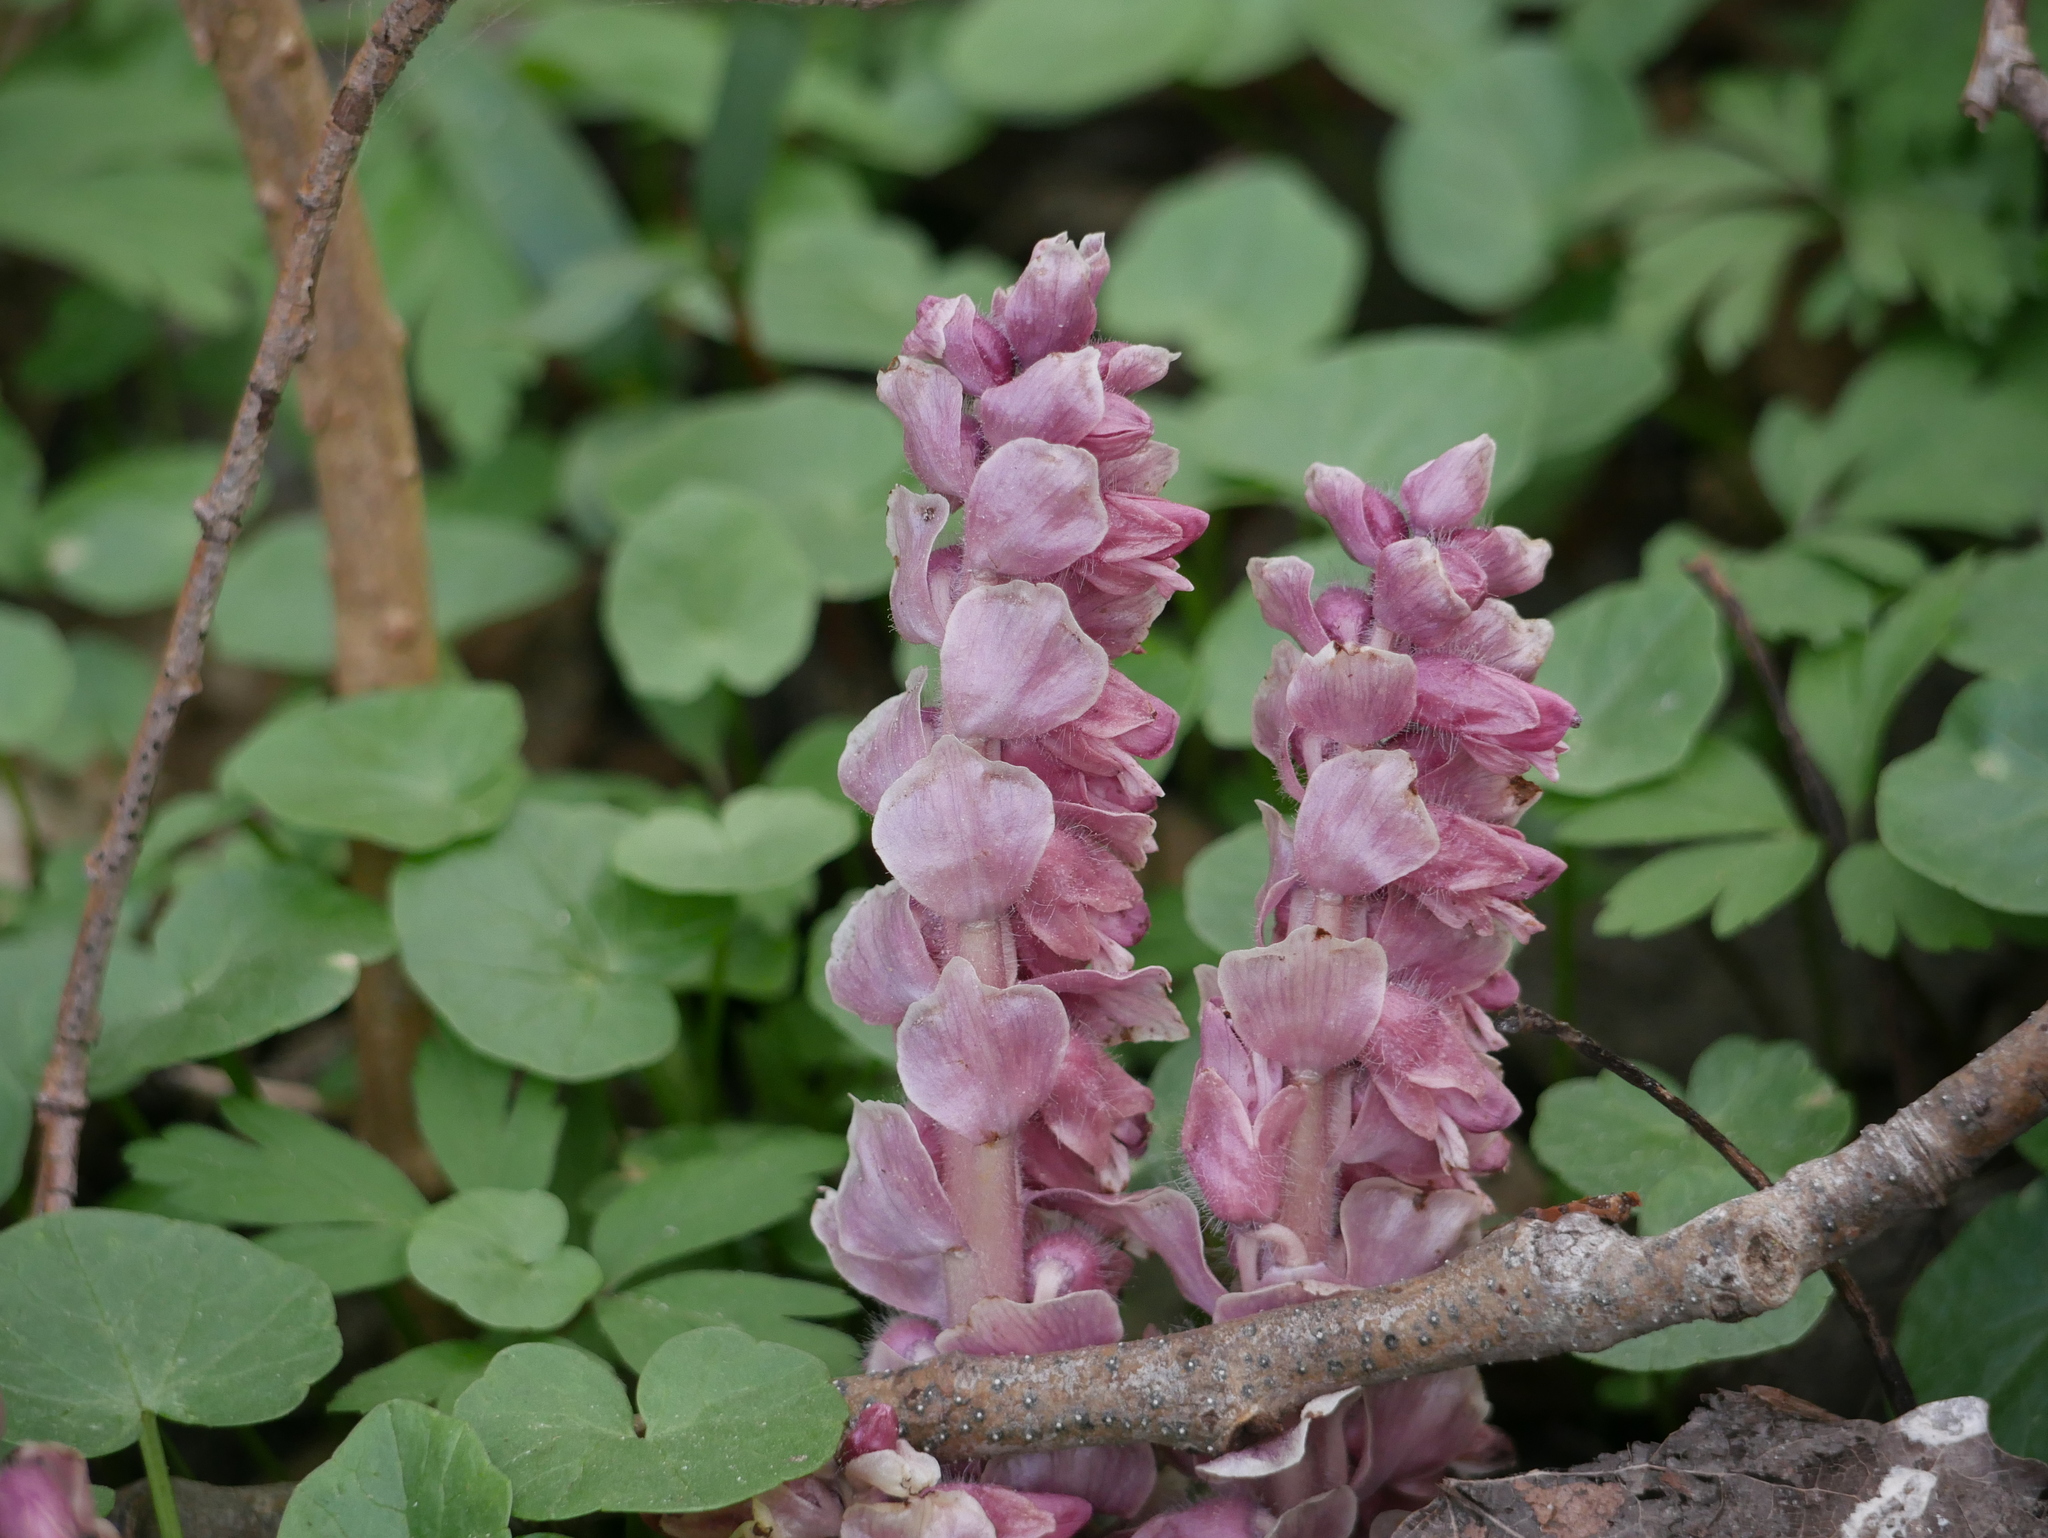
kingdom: Plantae
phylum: Tracheophyta
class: Magnoliopsida
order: Lamiales
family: Orobanchaceae
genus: Lathraea
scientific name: Lathraea squamaria
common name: Toothwort
